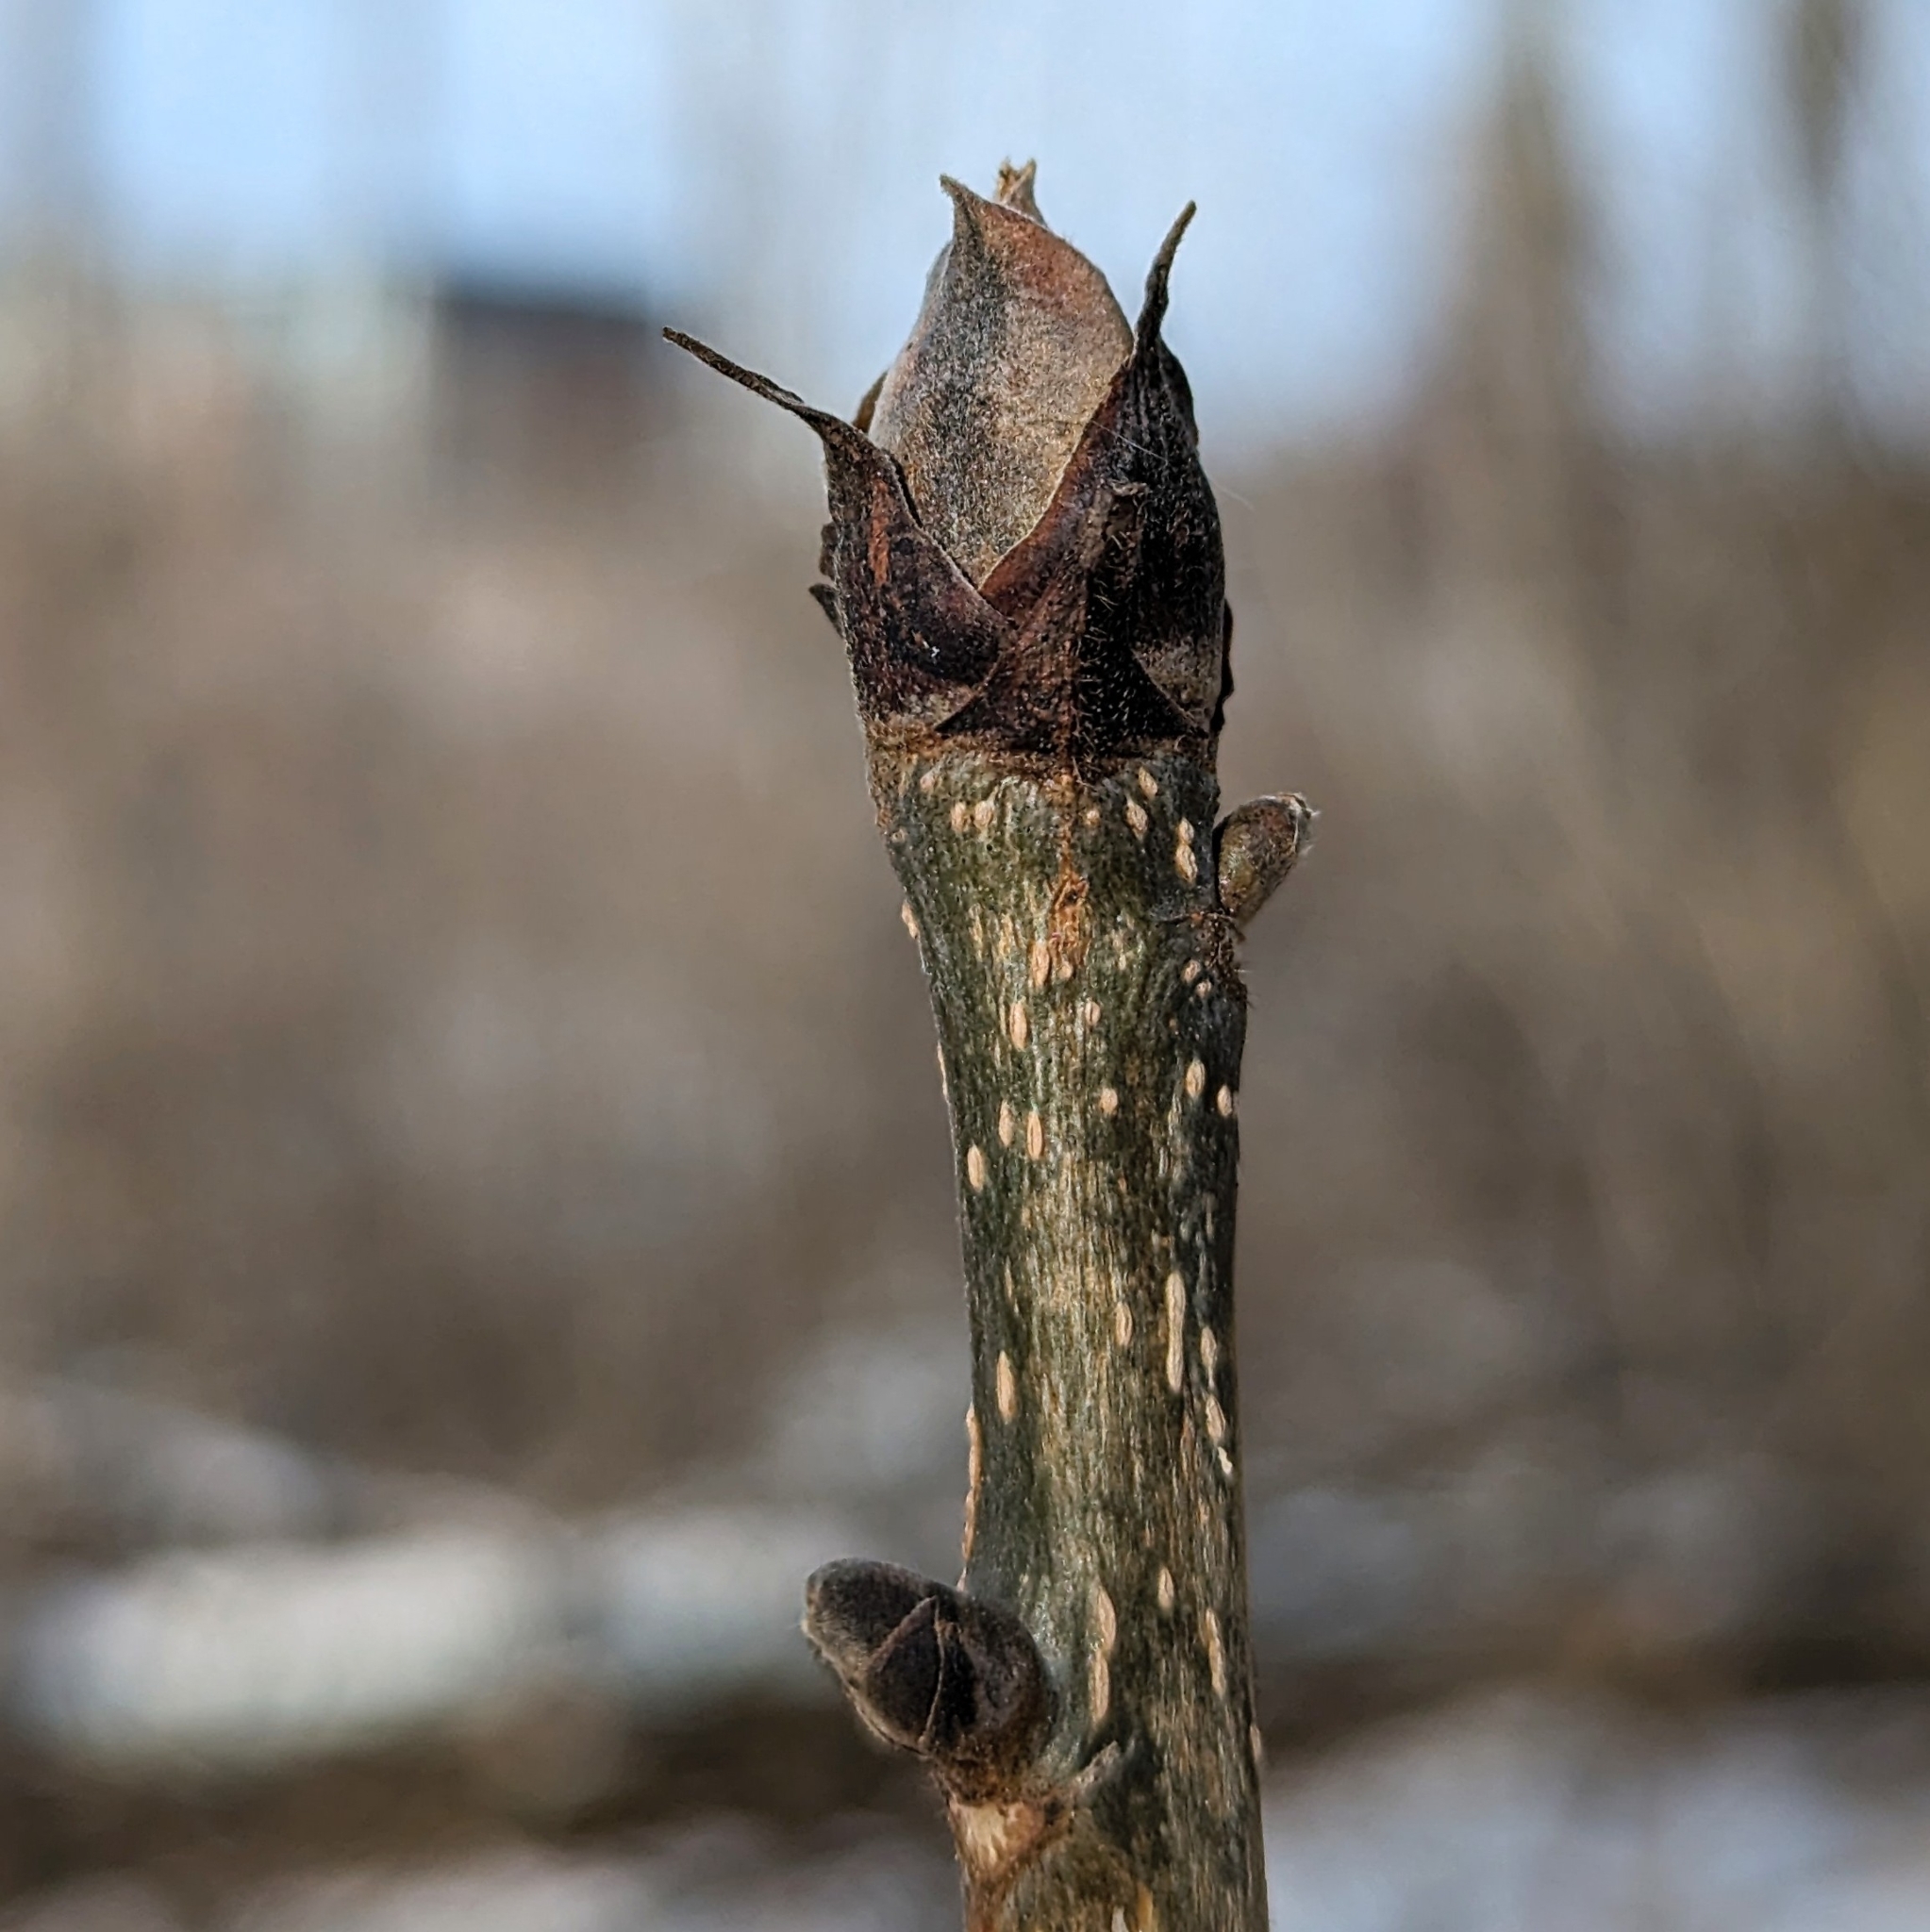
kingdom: Plantae
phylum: Tracheophyta
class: Magnoliopsida
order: Fagales
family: Juglandaceae
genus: Carya
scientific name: Carya ovata
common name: Shagbark hickory
